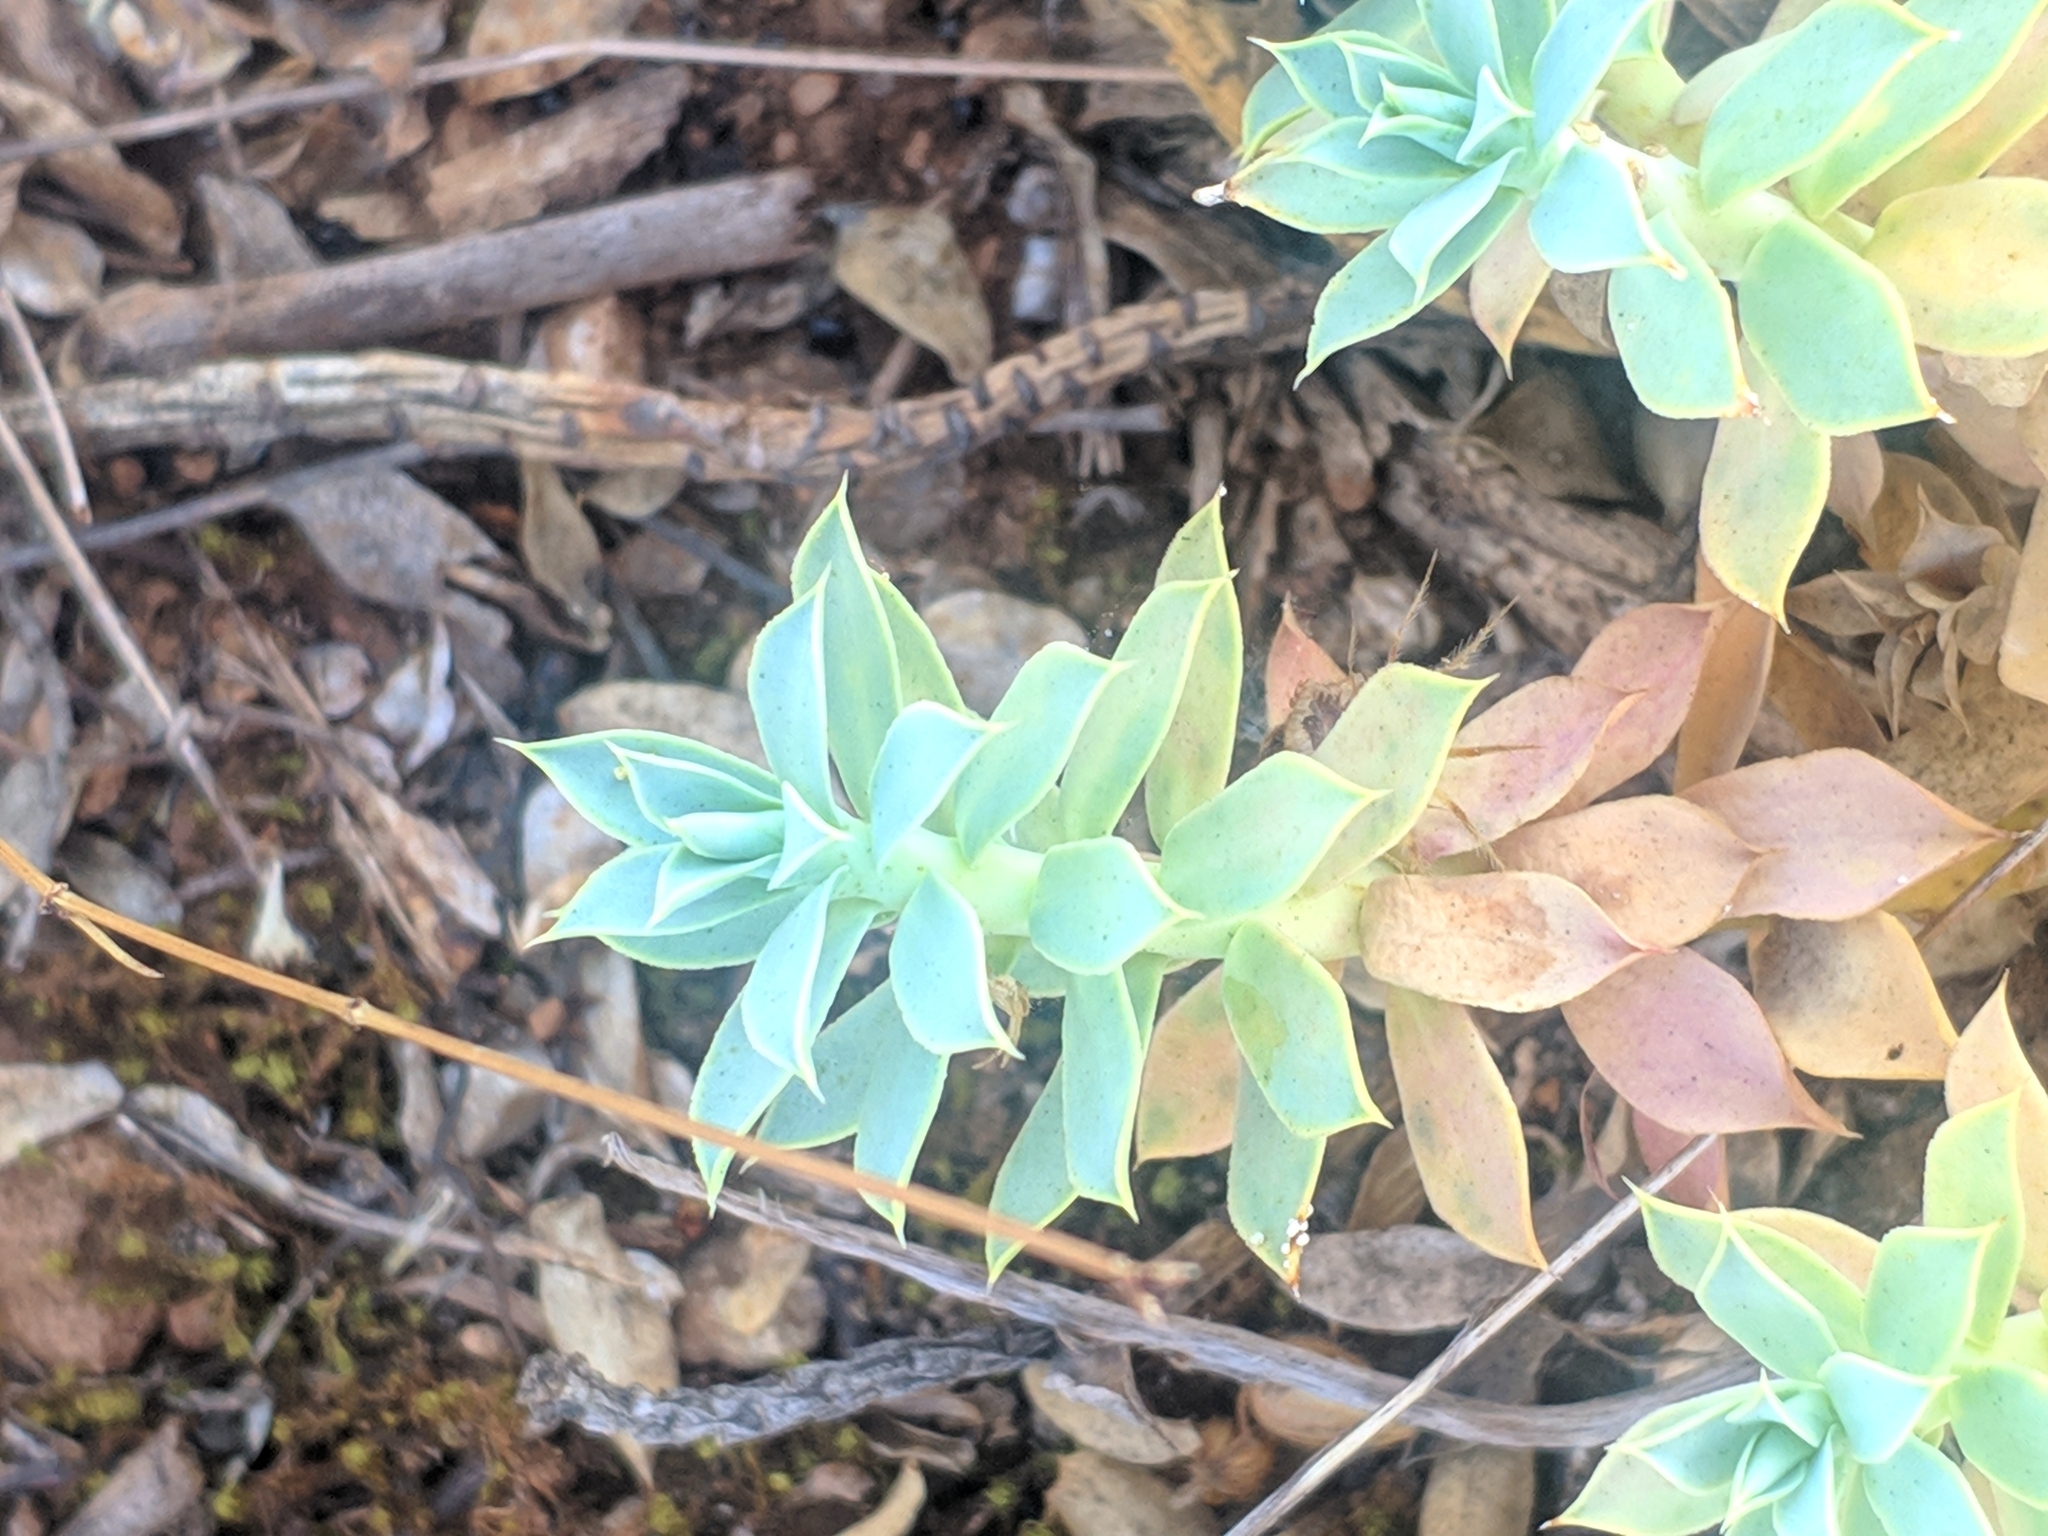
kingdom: Plantae
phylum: Tracheophyta
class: Magnoliopsida
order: Malpighiales
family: Euphorbiaceae
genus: Euphorbia
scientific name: Euphorbia myrsinites
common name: Myrtle spurge
